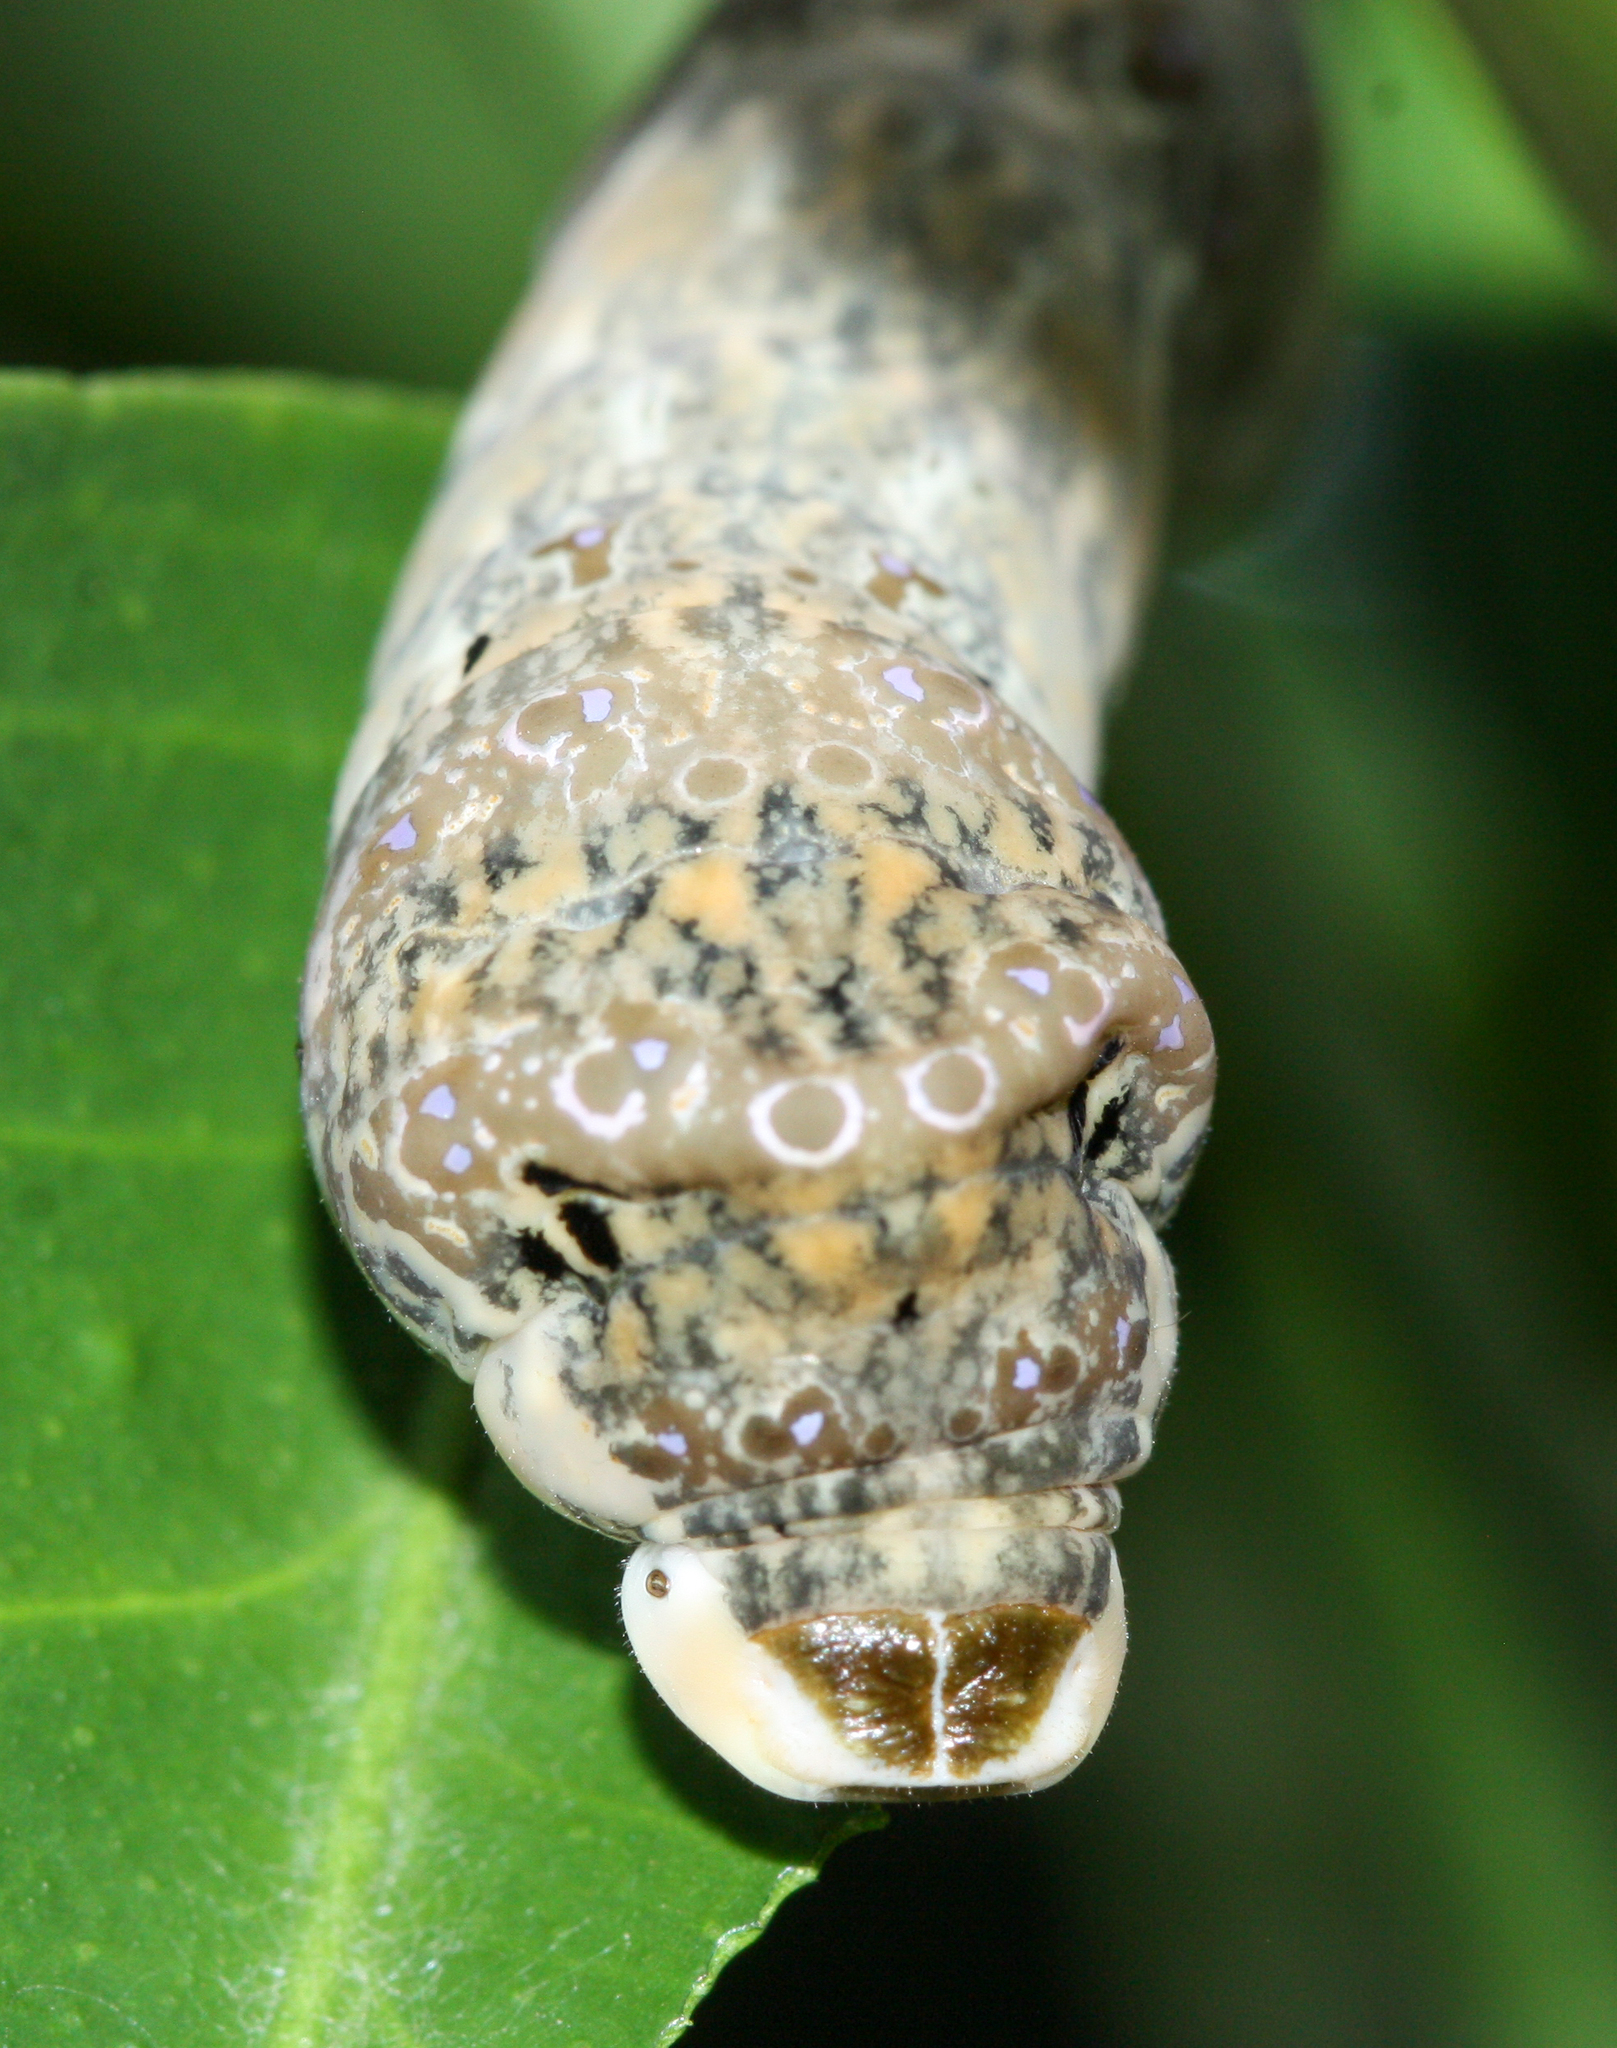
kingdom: Animalia
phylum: Arthropoda
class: Insecta
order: Lepidoptera
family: Papilionidae
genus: Papilio
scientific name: Papilio rumiko
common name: Western giant swallowtail
